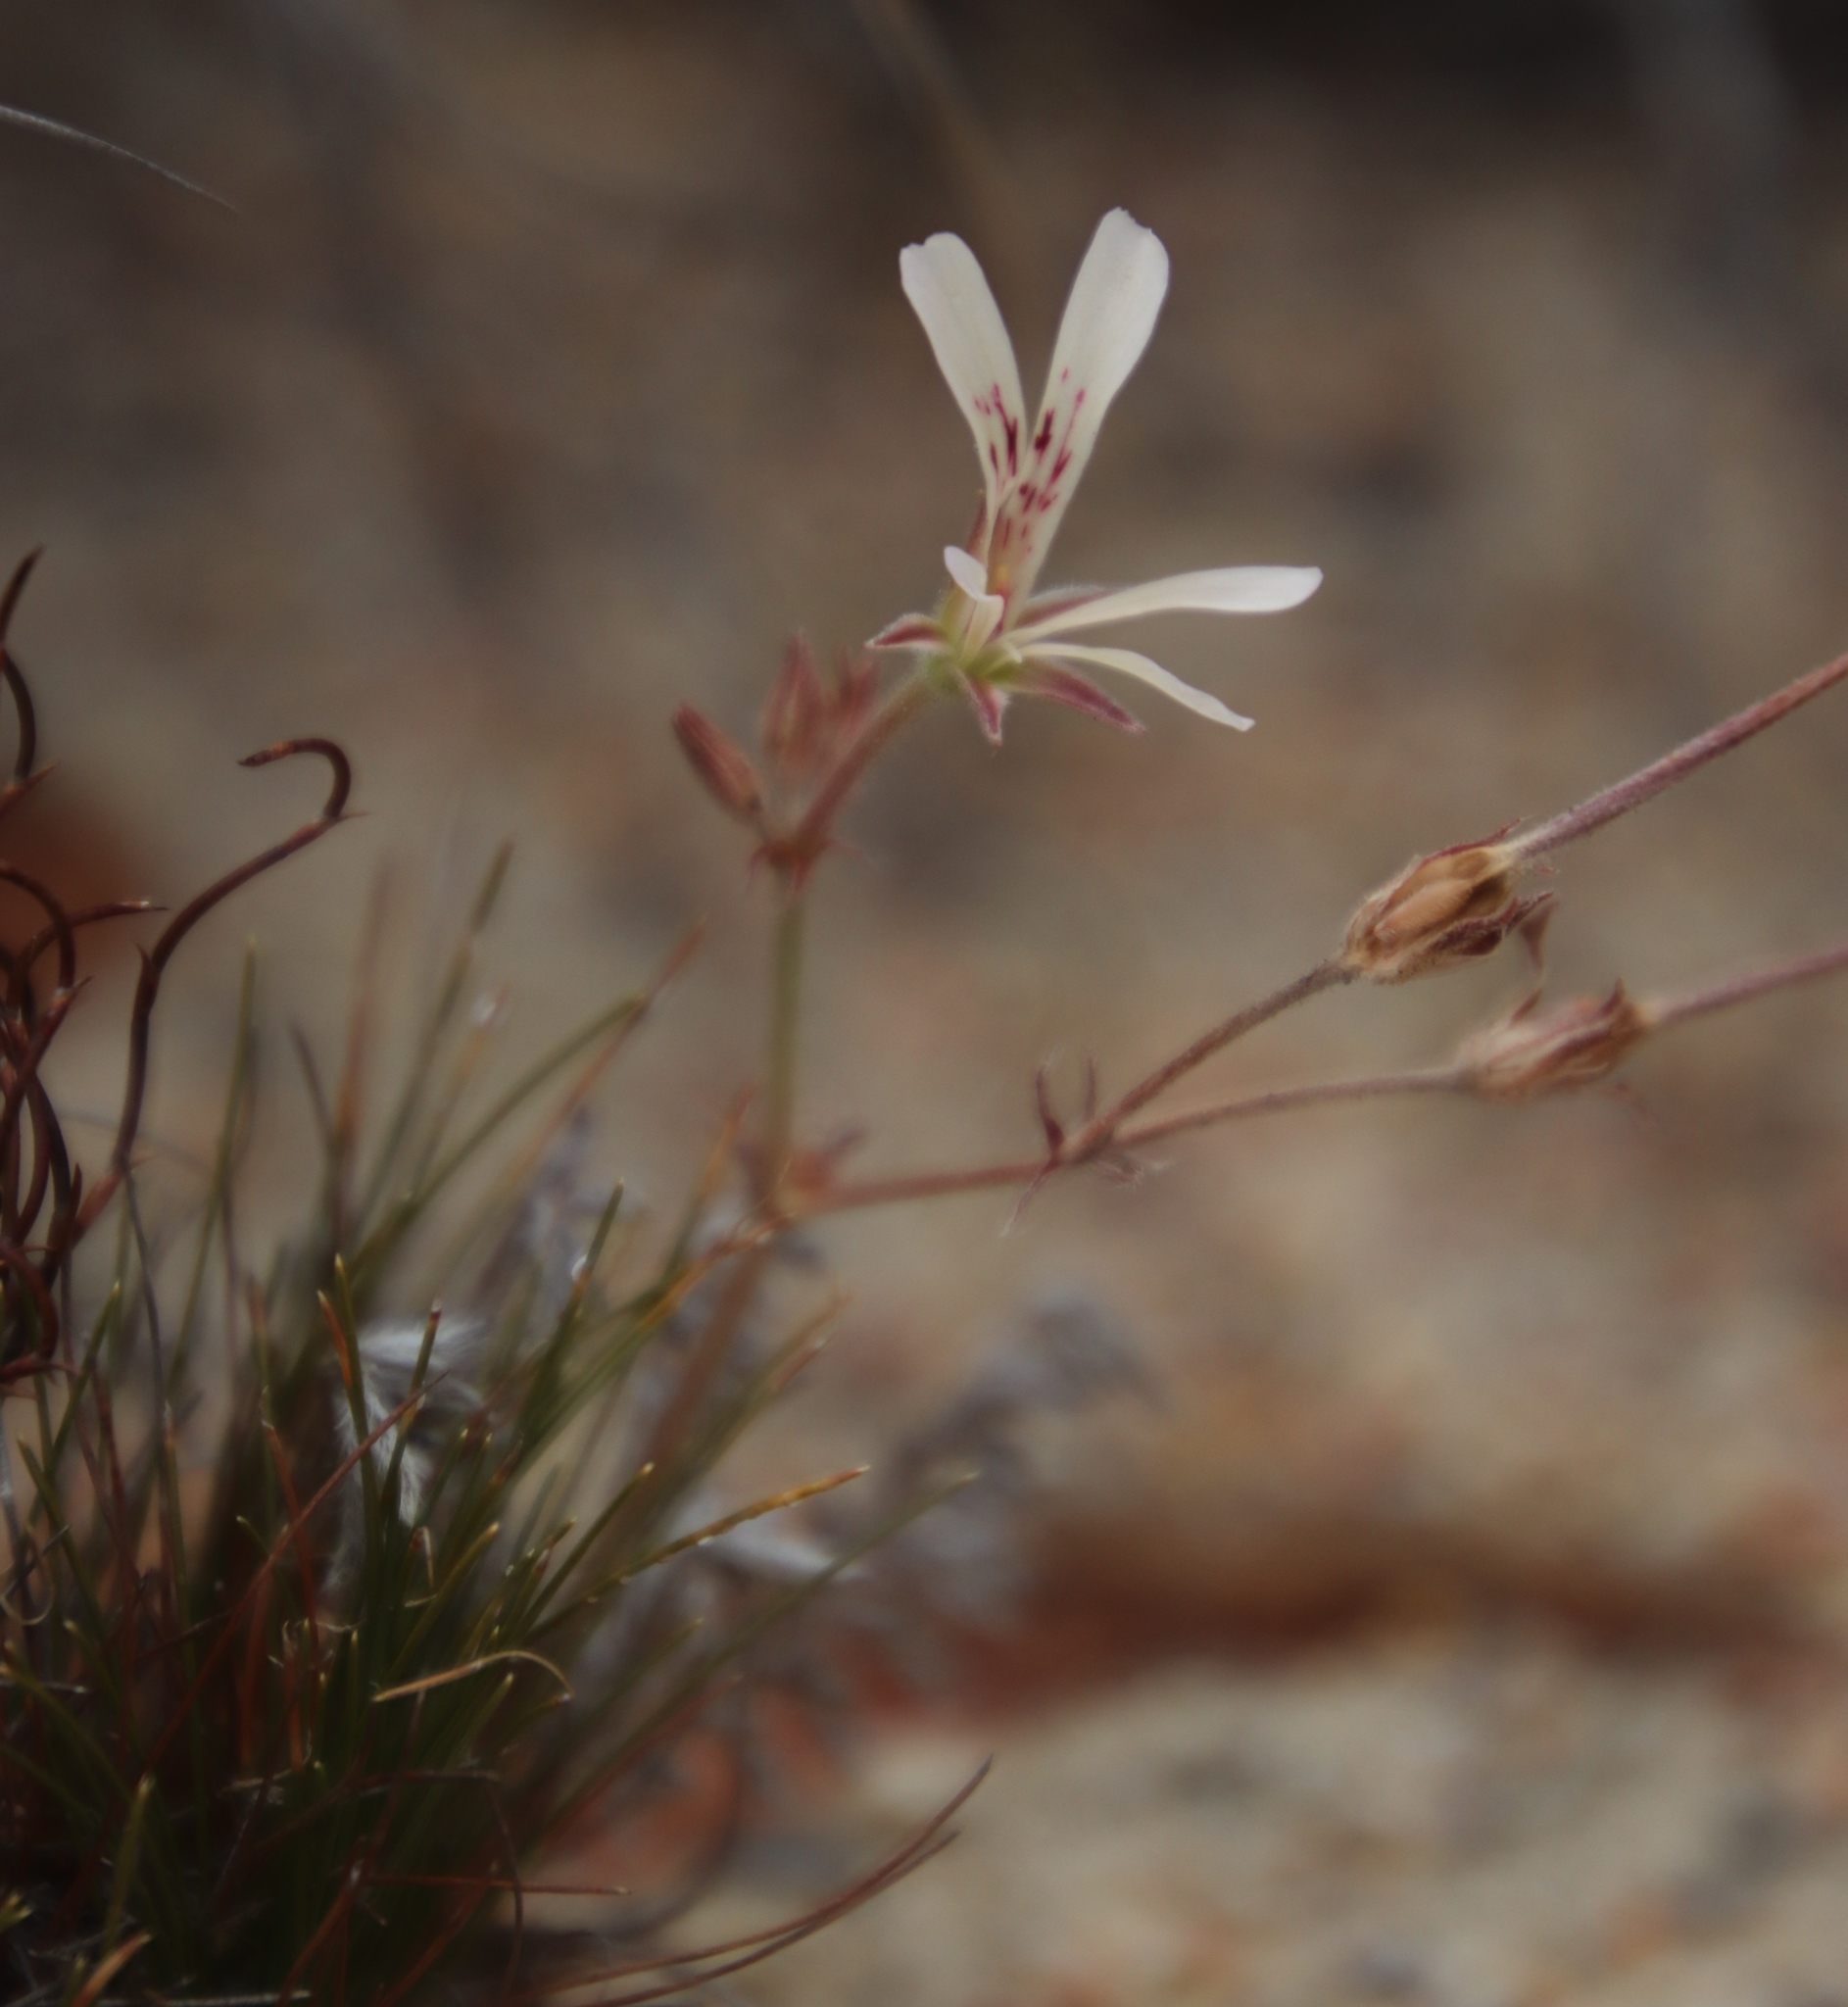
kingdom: Plantae
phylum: Tracheophyta
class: Magnoliopsida
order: Geraniales
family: Geraniaceae
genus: Pelargonium
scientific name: Pelargonium pinnatum
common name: Pinnated pelargonium
